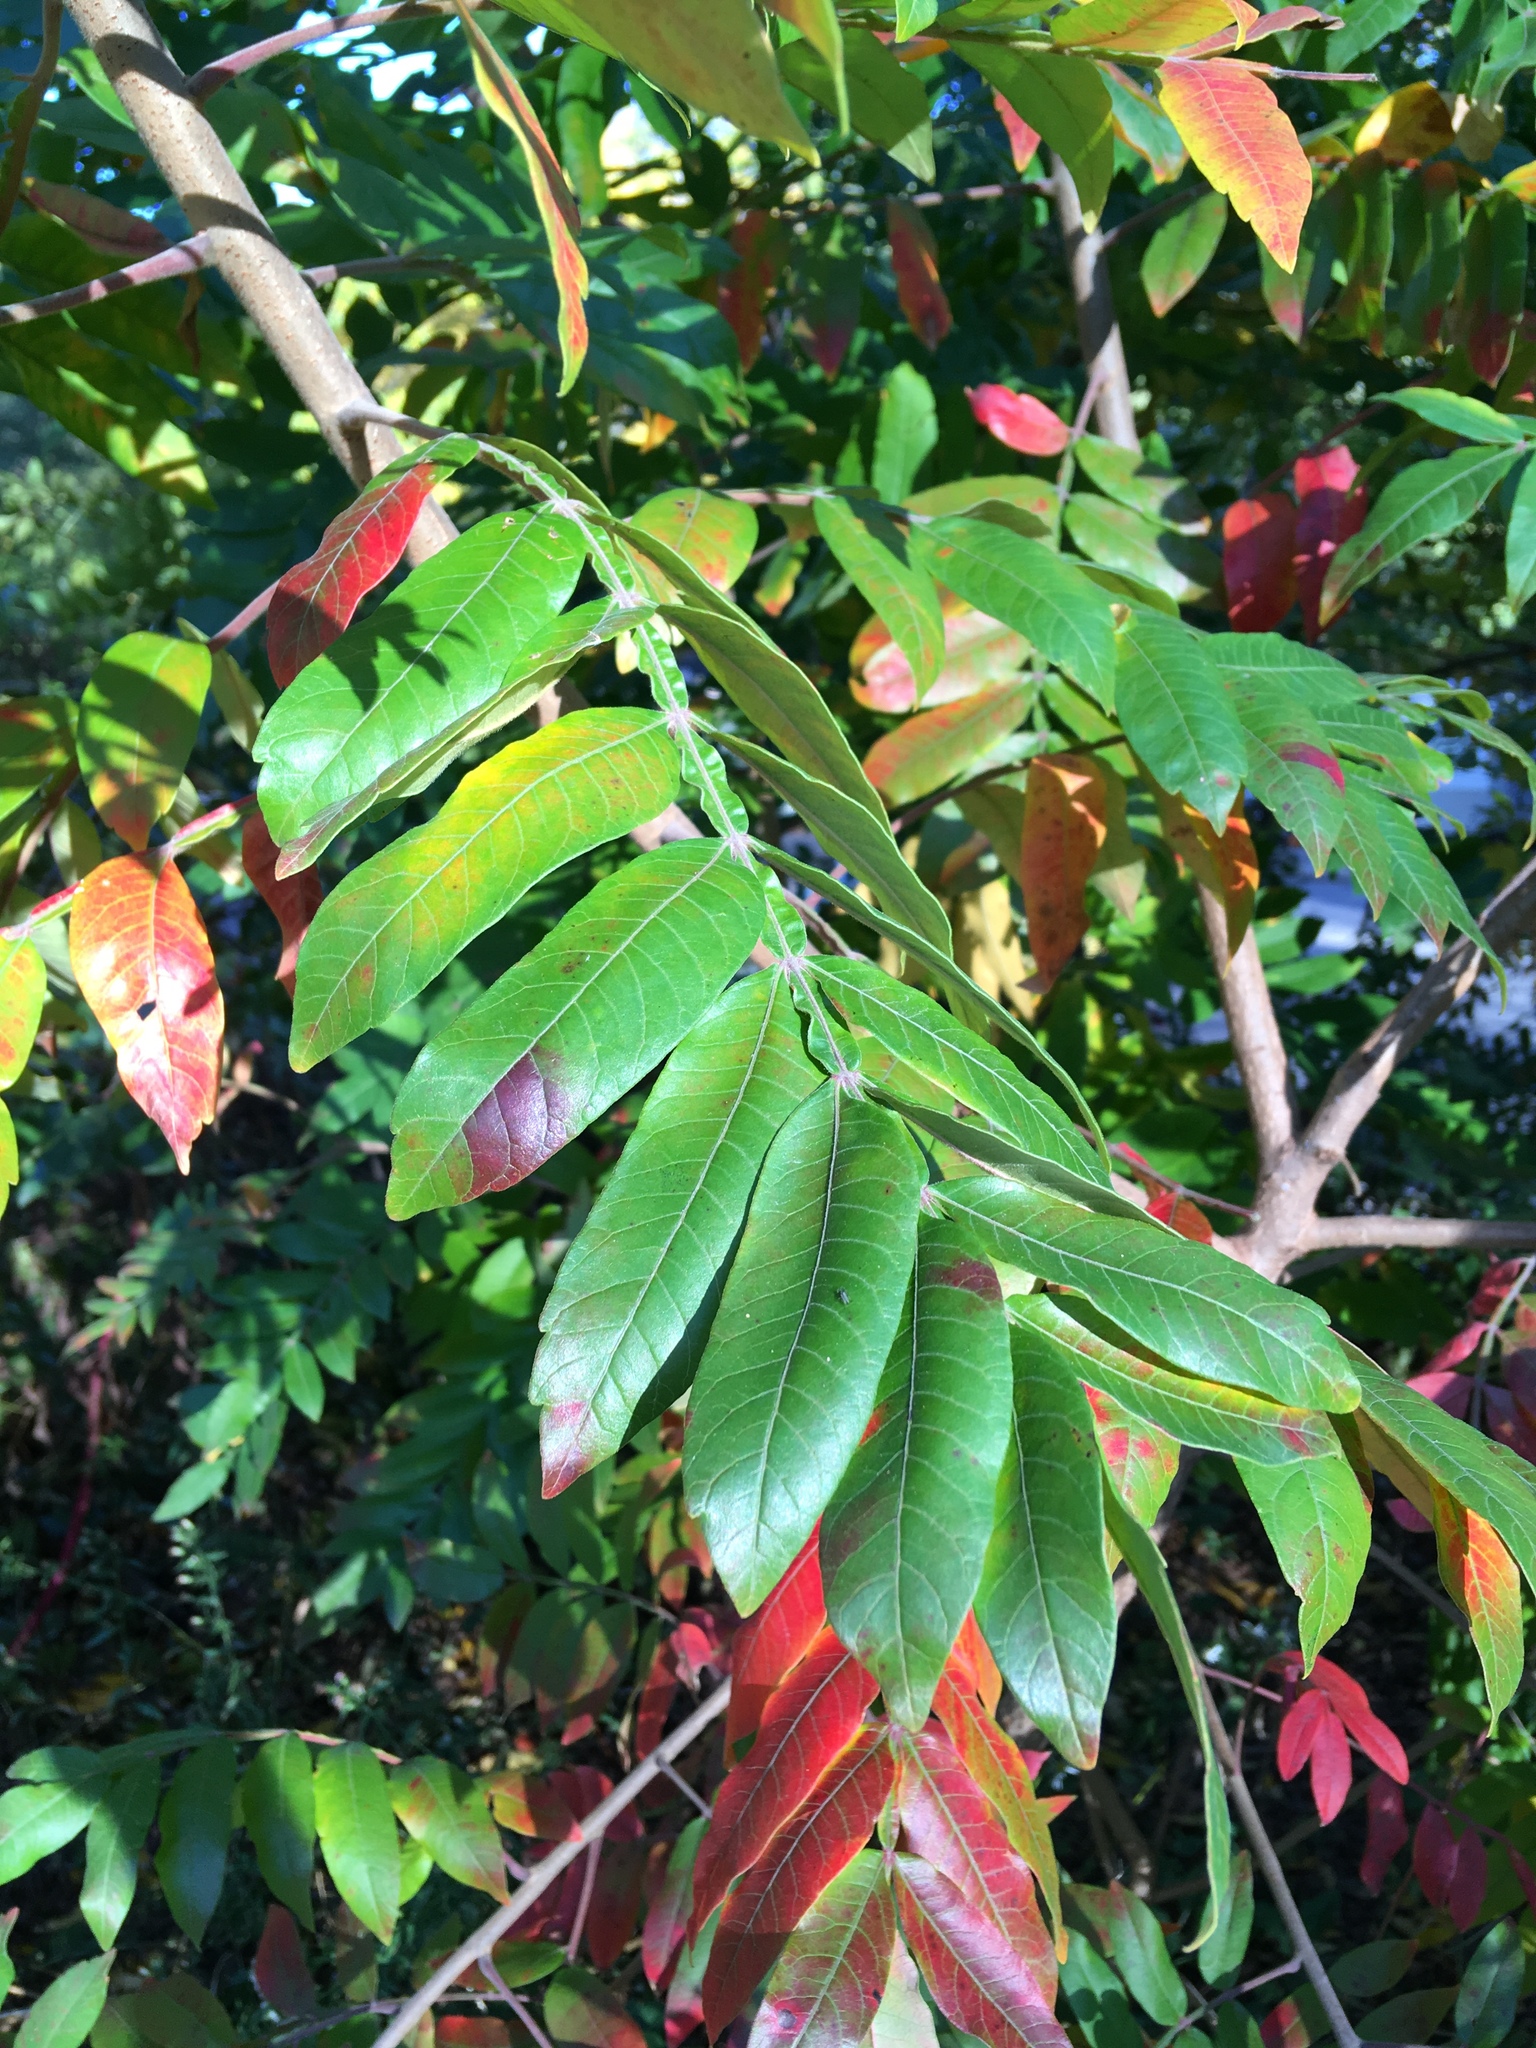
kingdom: Plantae
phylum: Tracheophyta
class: Magnoliopsida
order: Sapindales
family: Anacardiaceae
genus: Rhus
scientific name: Rhus copallina
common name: Shining sumac
